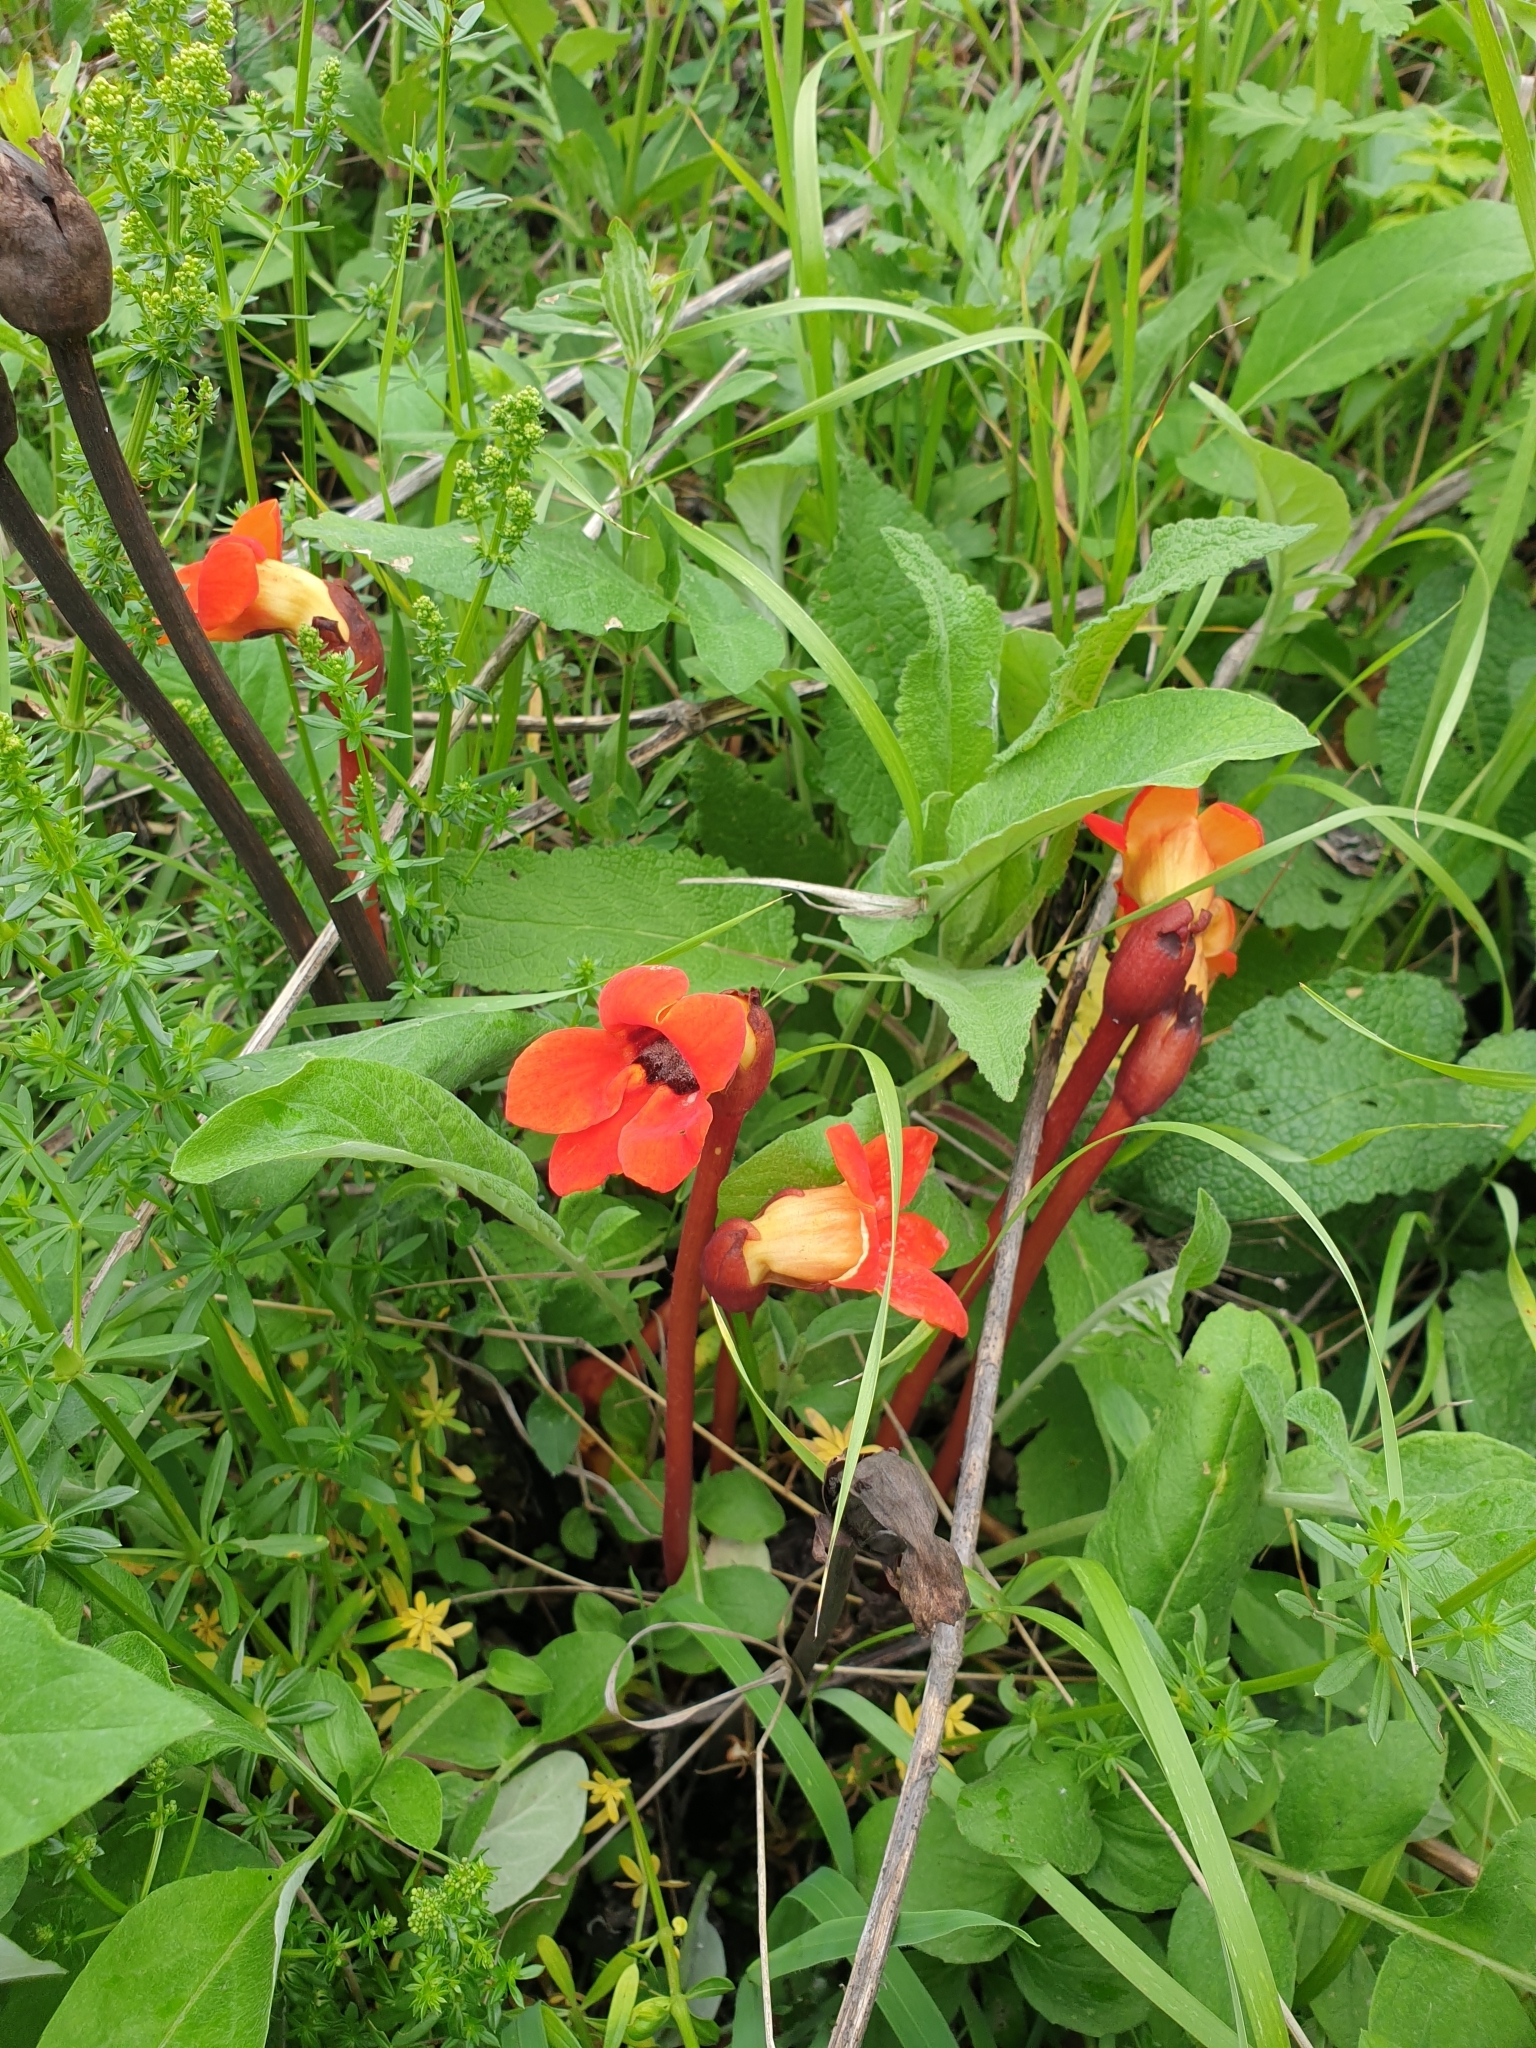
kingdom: Plantae
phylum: Tracheophyta
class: Magnoliopsida
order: Lamiales
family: Orobanchaceae
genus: Diphelypaea
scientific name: Diphelypaea coccinea
